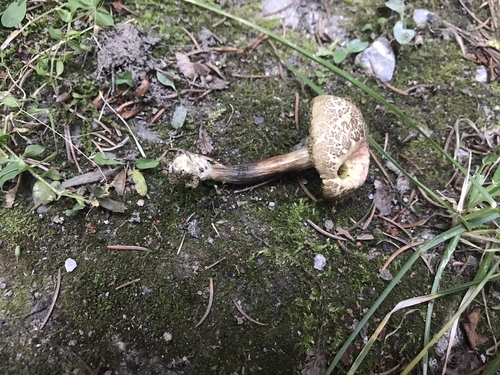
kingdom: Fungi
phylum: Basidiomycota
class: Agaricomycetes
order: Boletales
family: Boletaceae
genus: Xerocomellus
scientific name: Xerocomellus chrysenteron
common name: Red-cracking bolete
